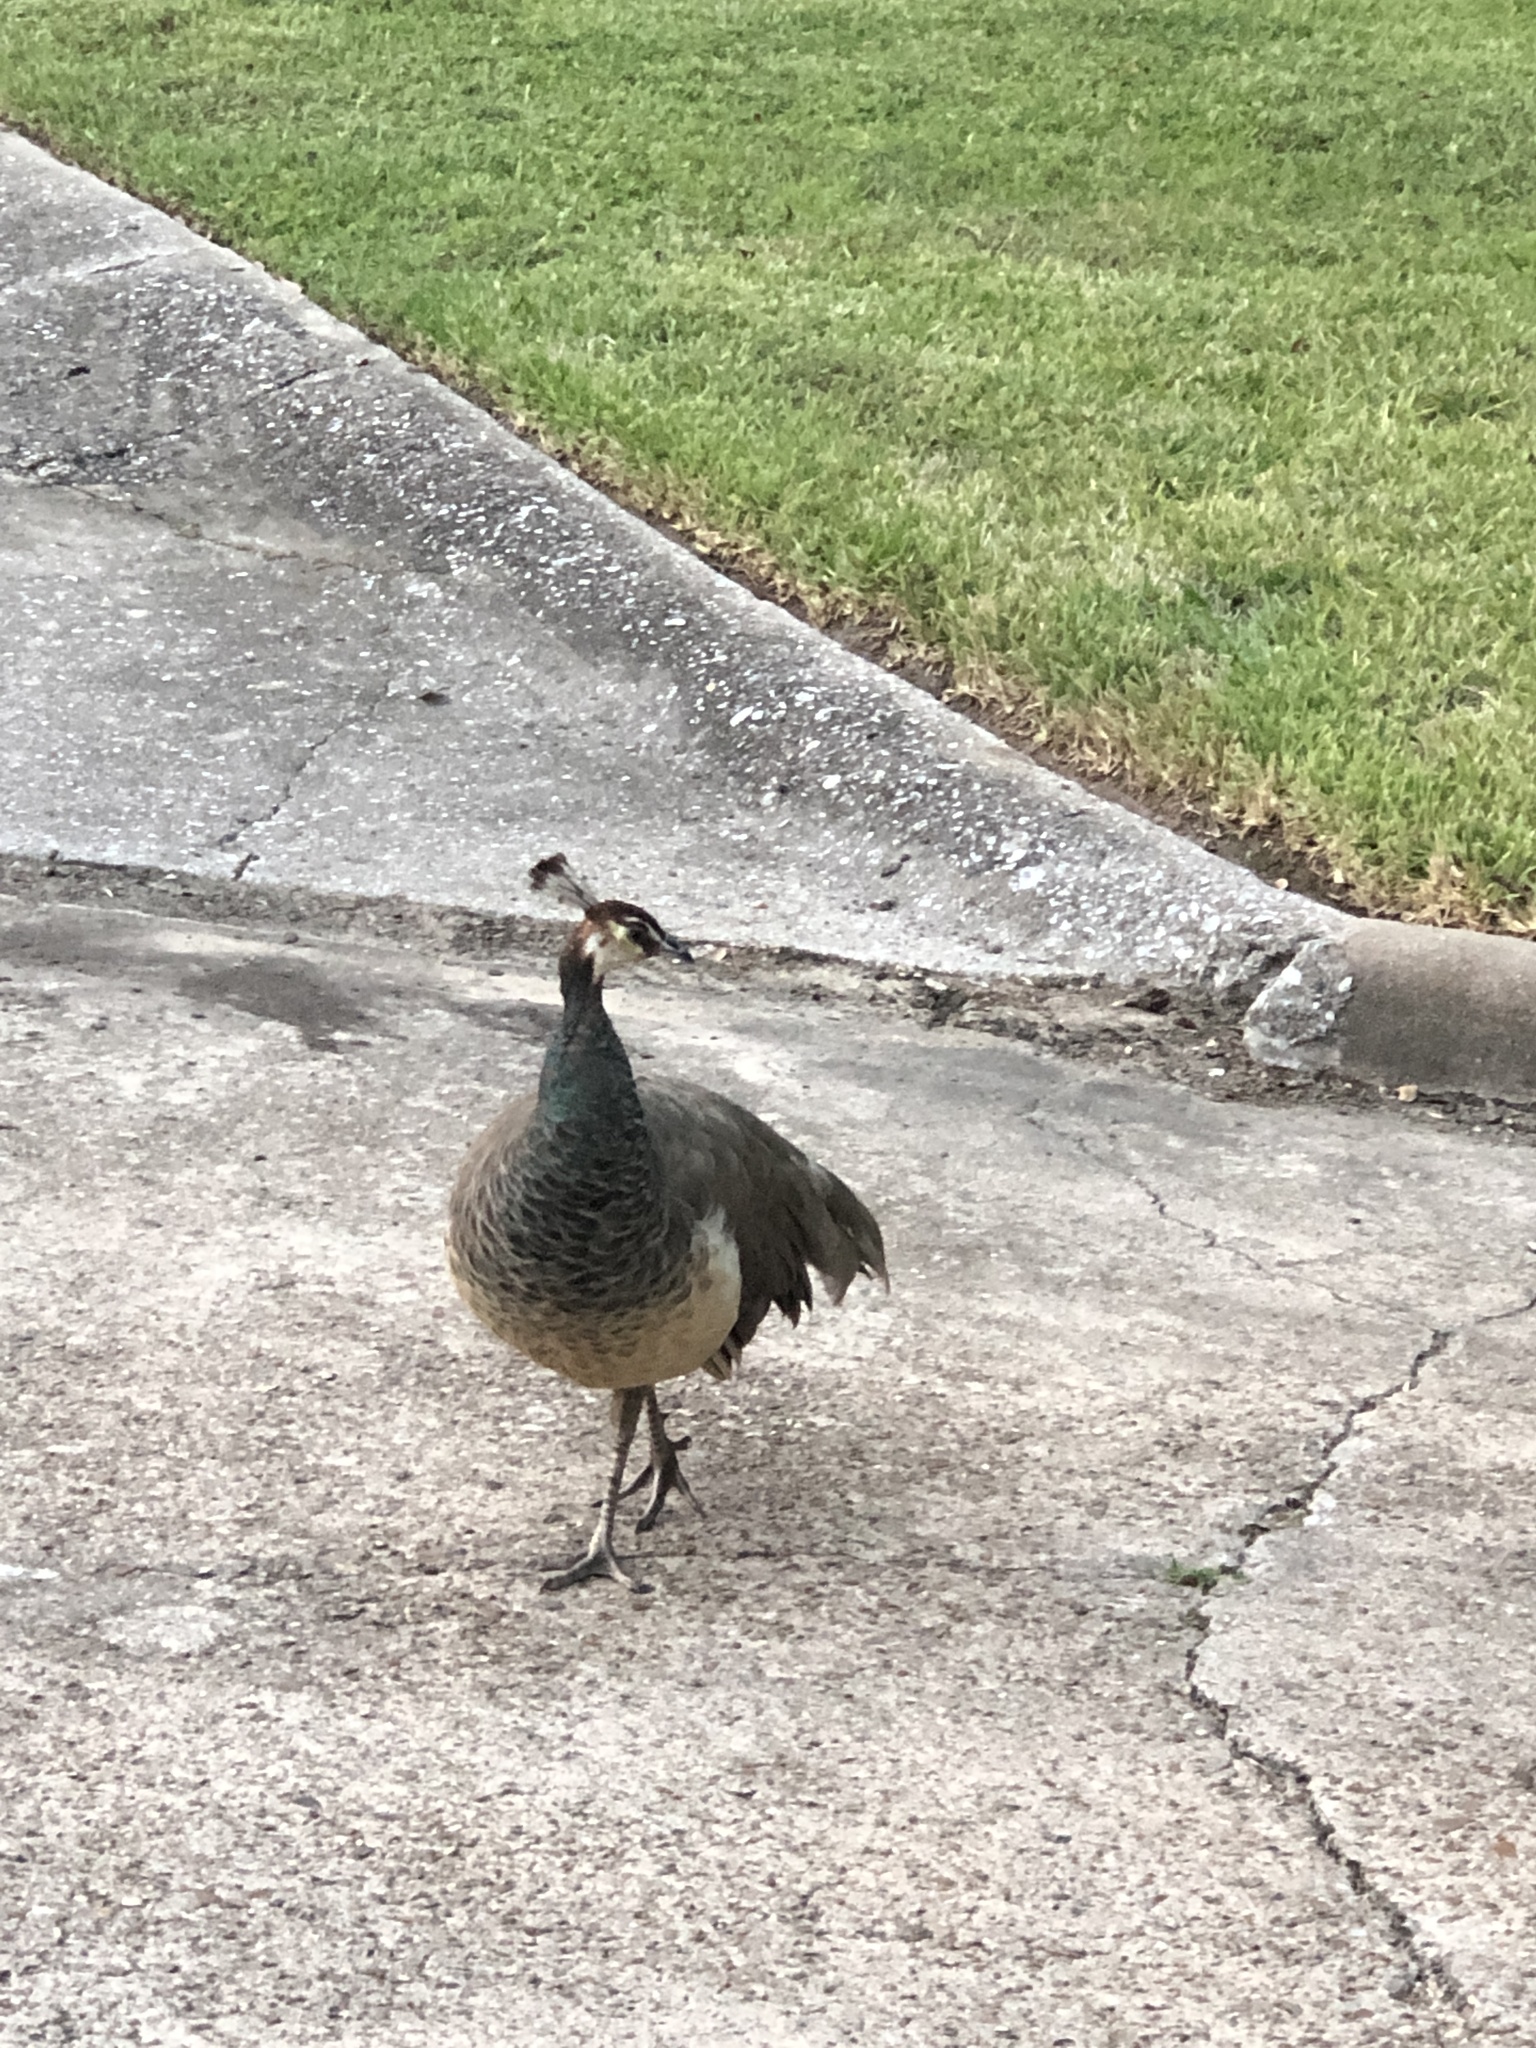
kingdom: Animalia
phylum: Chordata
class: Aves
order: Galliformes
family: Phasianidae
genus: Pavo
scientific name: Pavo cristatus
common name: Indian peafowl
